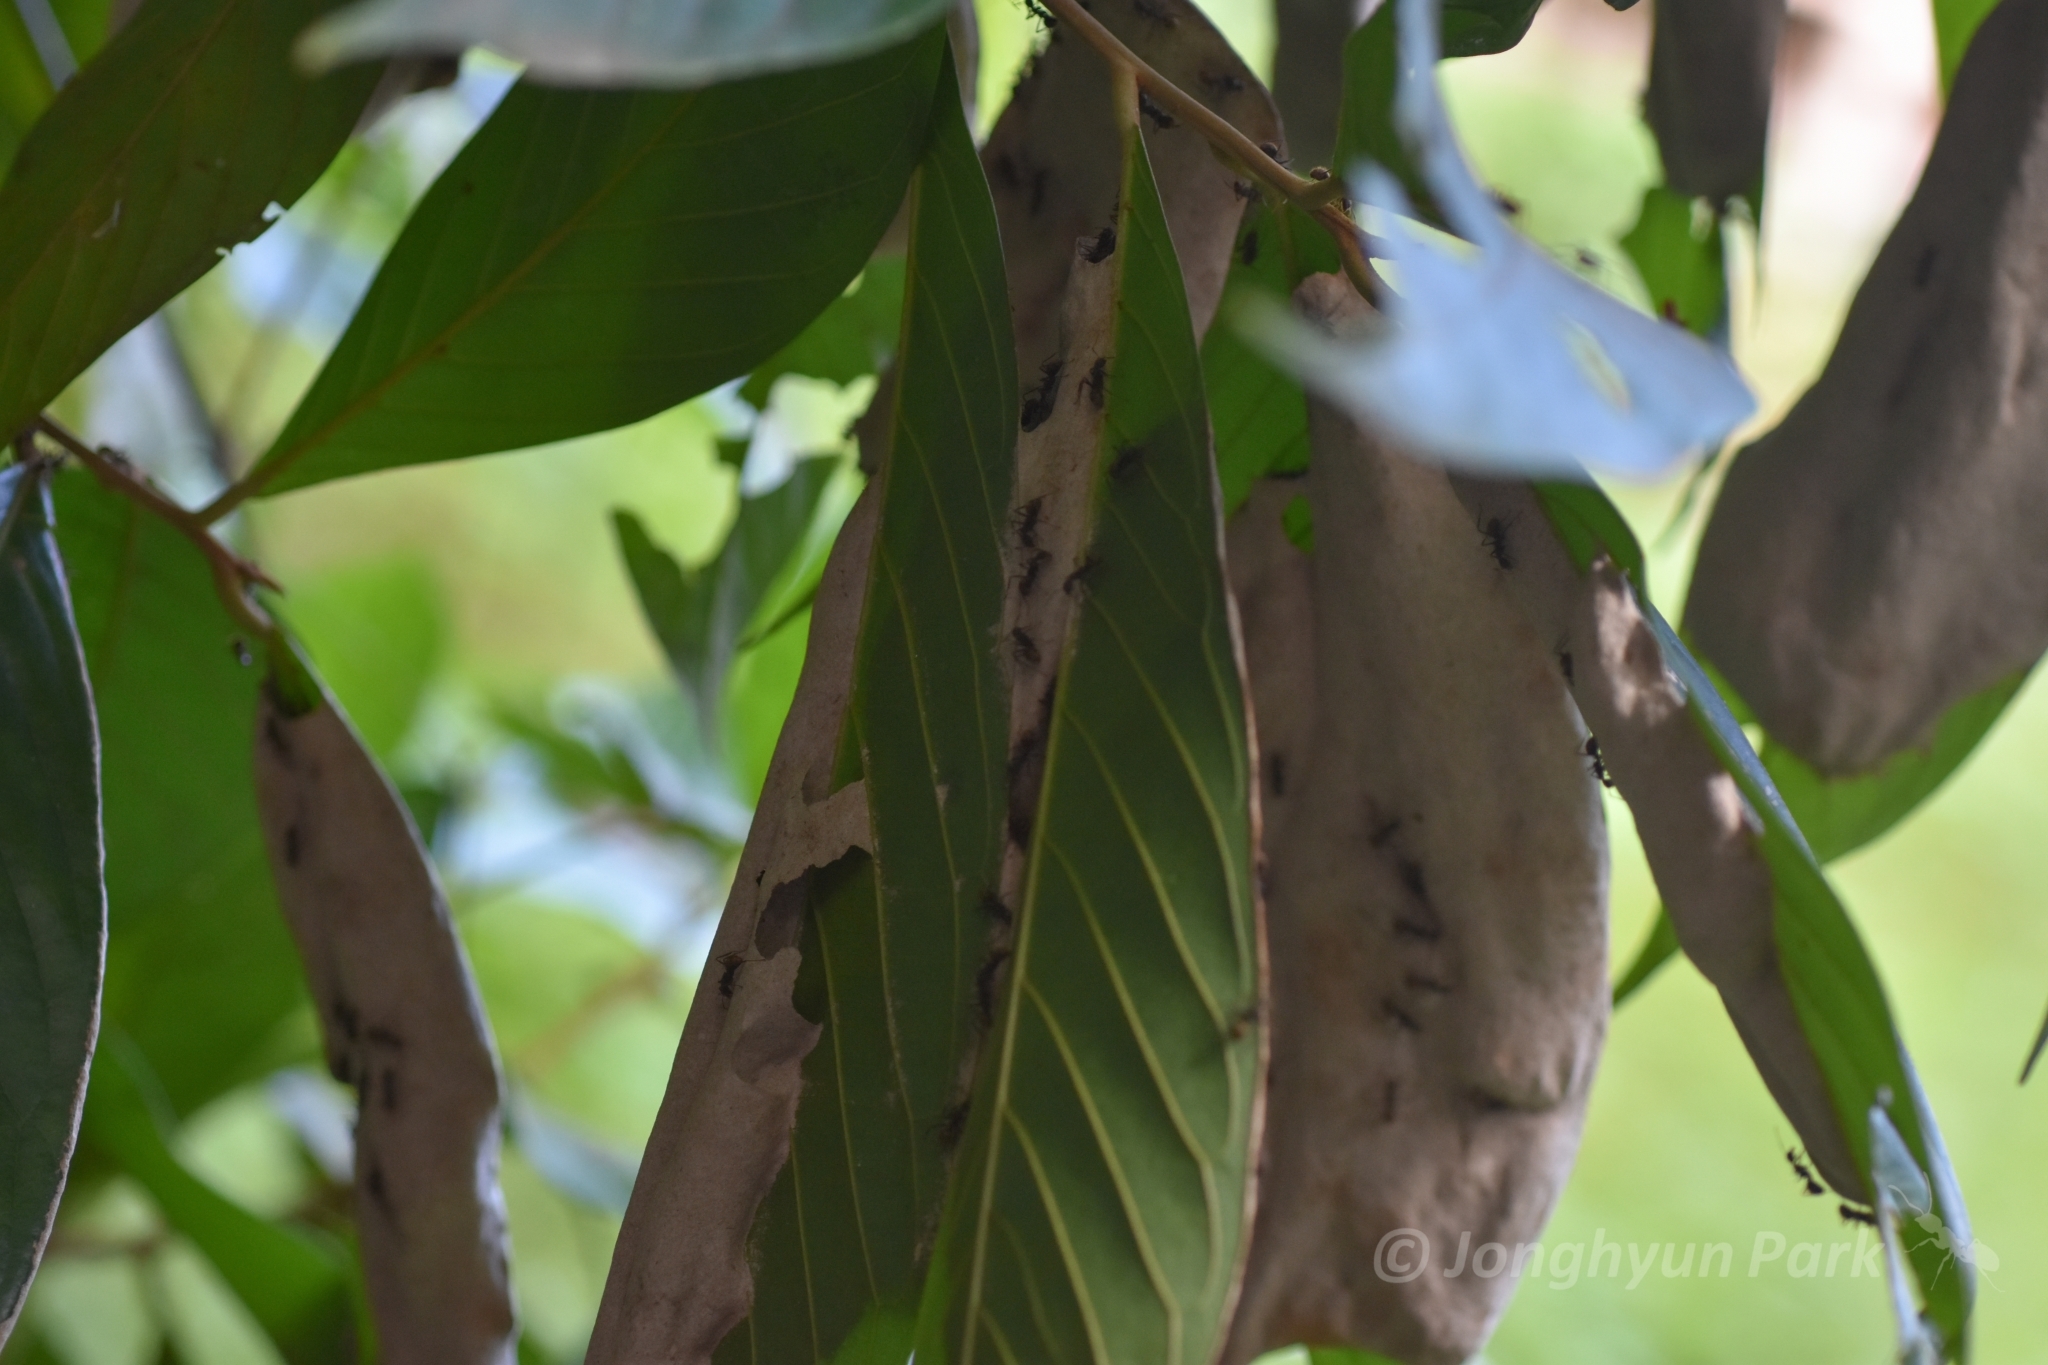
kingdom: Animalia
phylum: Arthropoda
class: Insecta
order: Hymenoptera
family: Formicidae
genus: Dolichoderus
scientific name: Dolichoderus spurius
